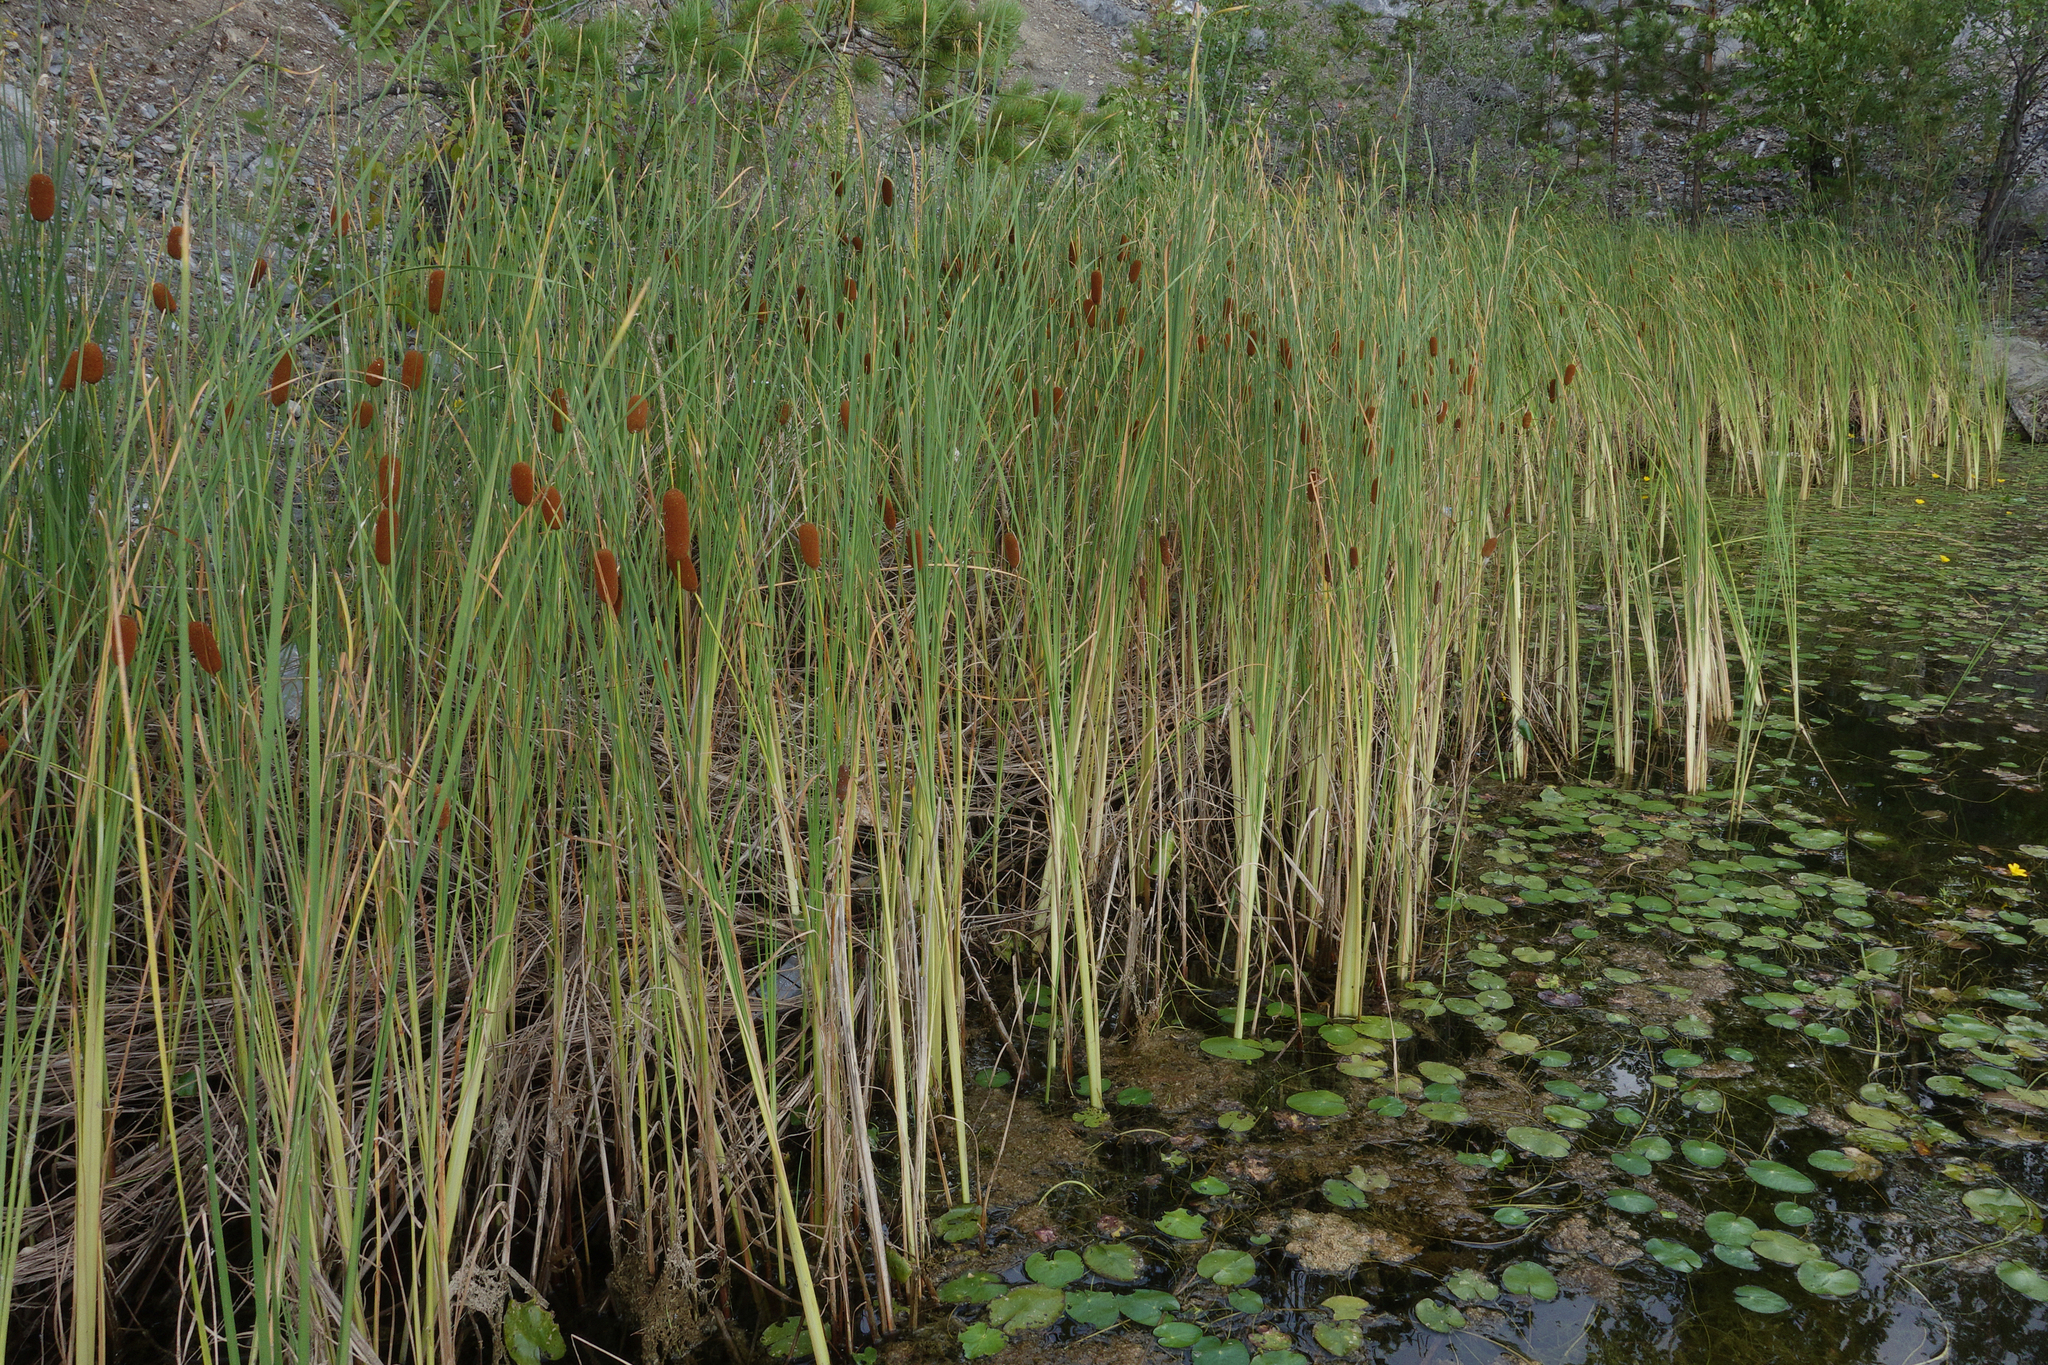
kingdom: Plantae
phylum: Tracheophyta
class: Liliopsida
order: Poales
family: Typhaceae
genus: Typha
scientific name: Typha laxmannii
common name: Laxman’s bulrush
